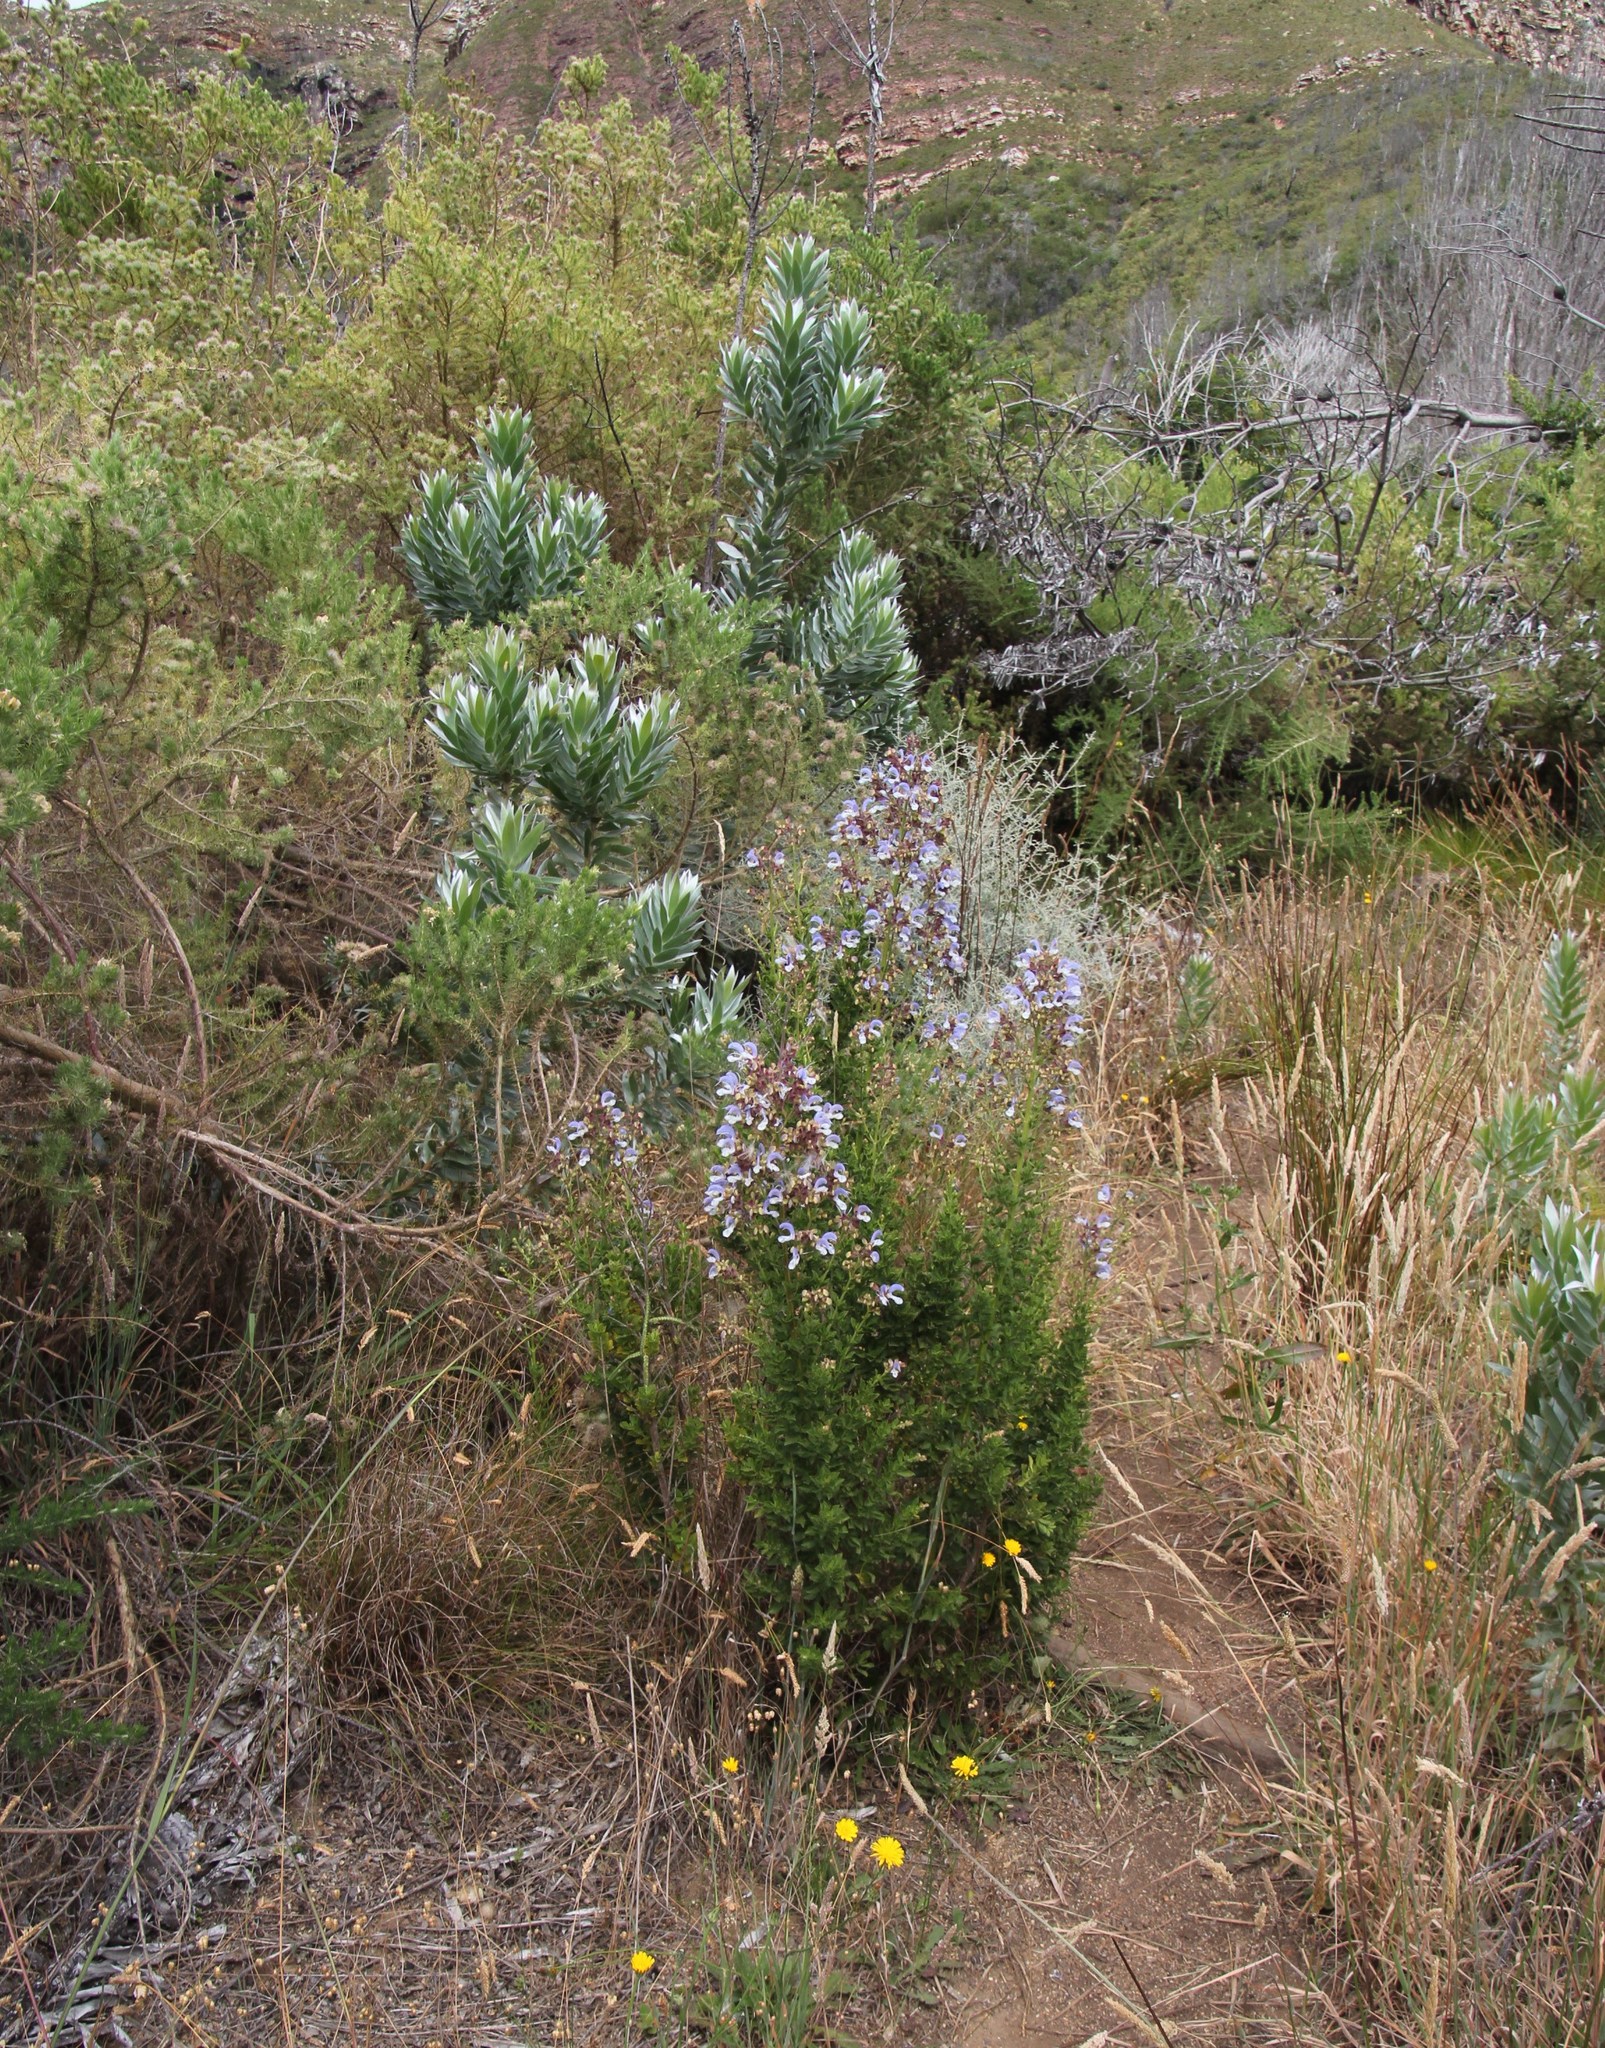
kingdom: Plantae
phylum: Tracheophyta
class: Magnoliopsida
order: Lamiales
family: Lamiaceae
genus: Salvia
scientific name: Salvia chamelaeagnea
